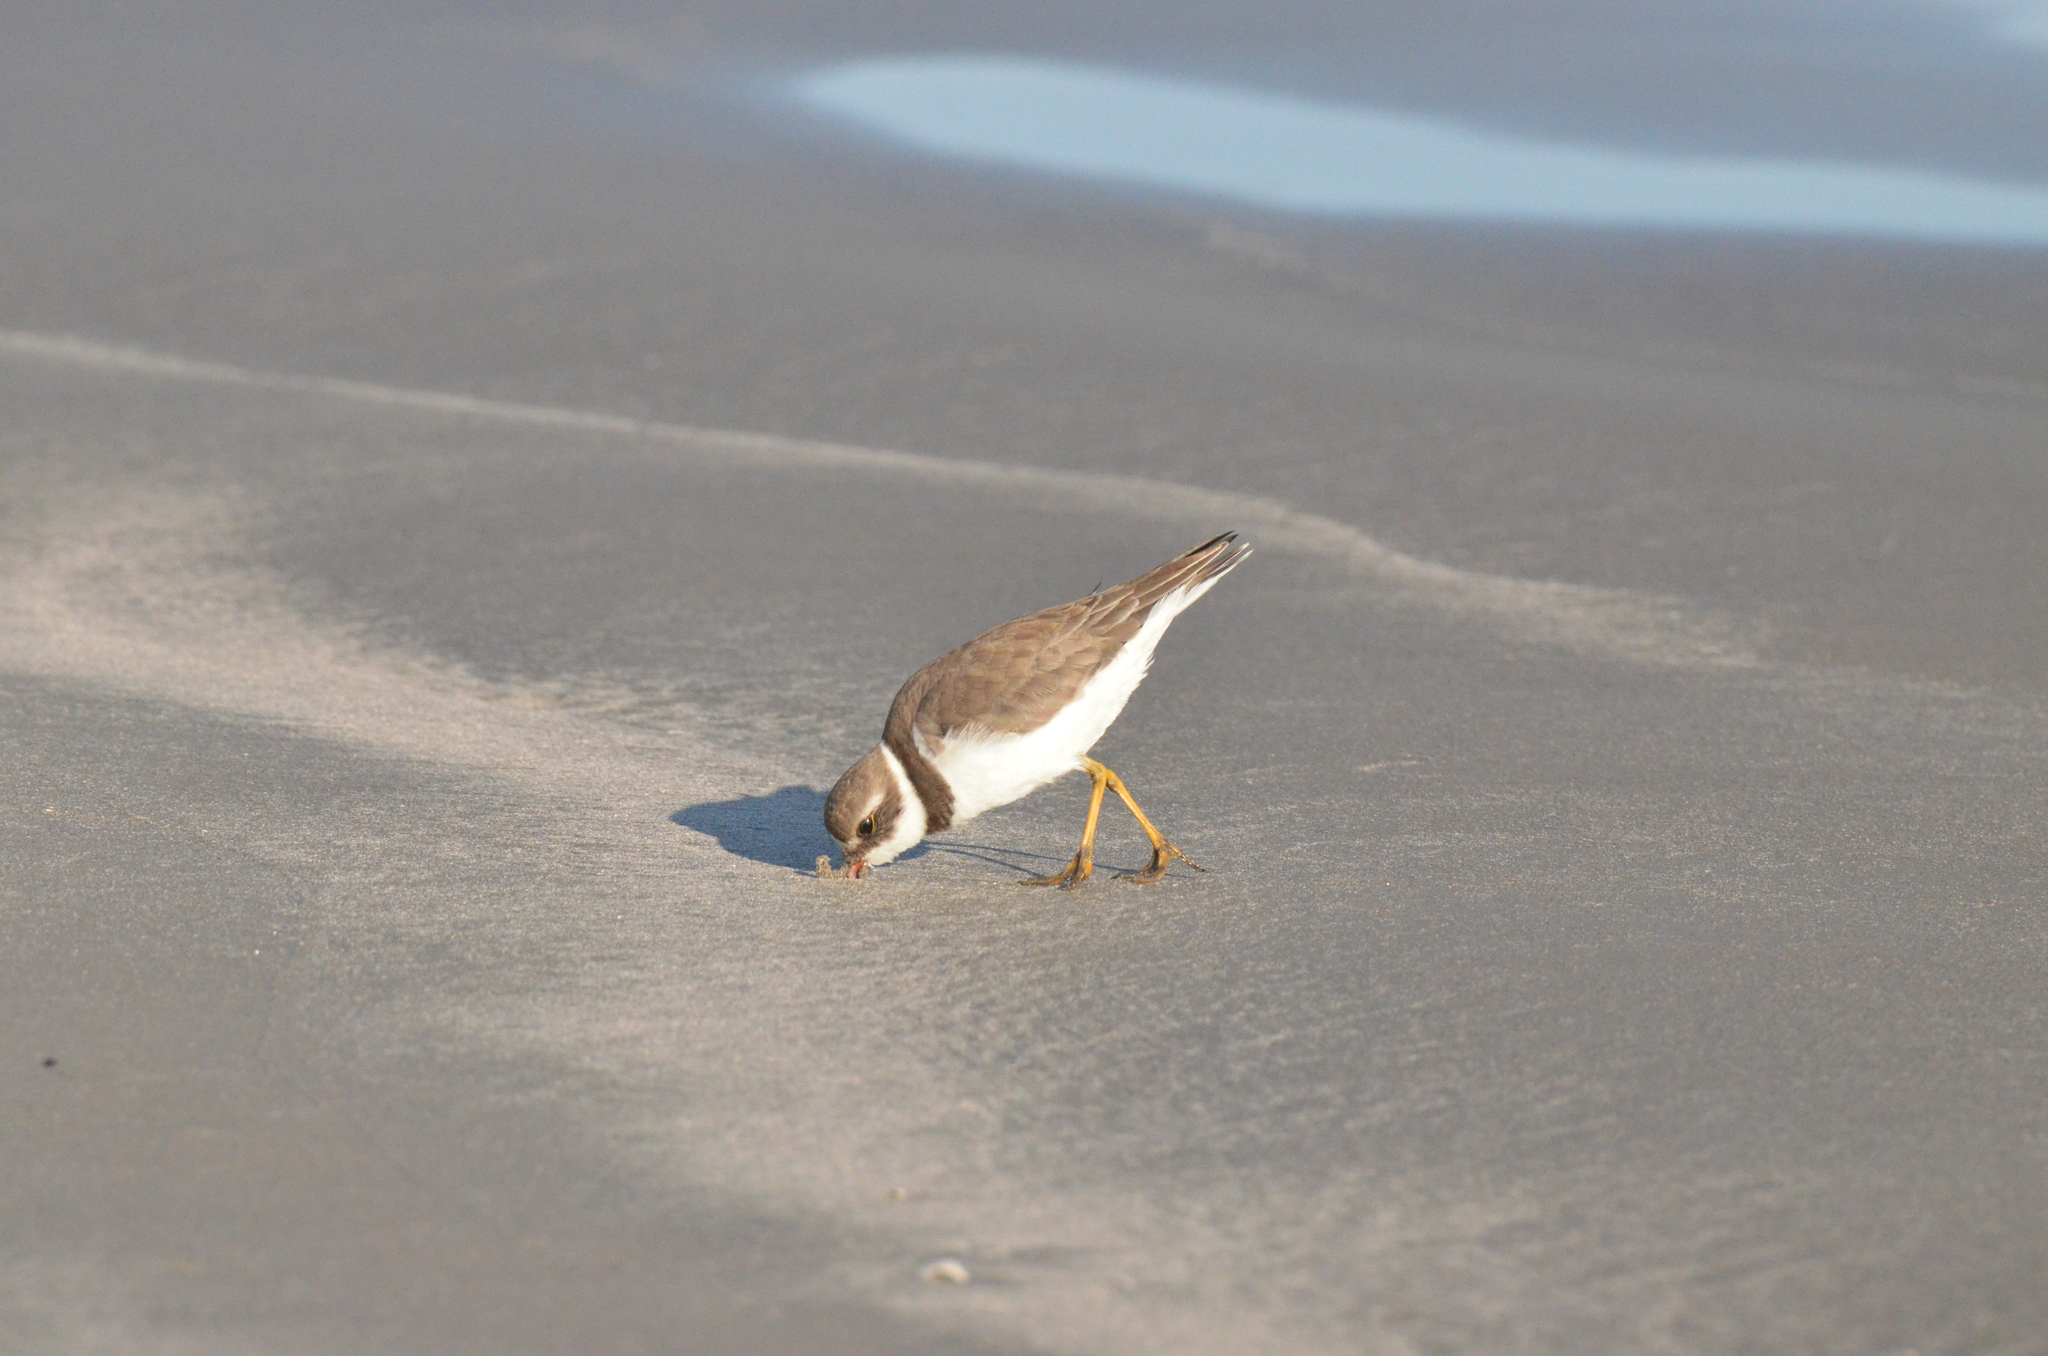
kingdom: Animalia
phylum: Chordata
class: Aves
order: Charadriiformes
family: Charadriidae
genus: Charadrius
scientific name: Charadrius semipalmatus
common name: Semipalmated plover
